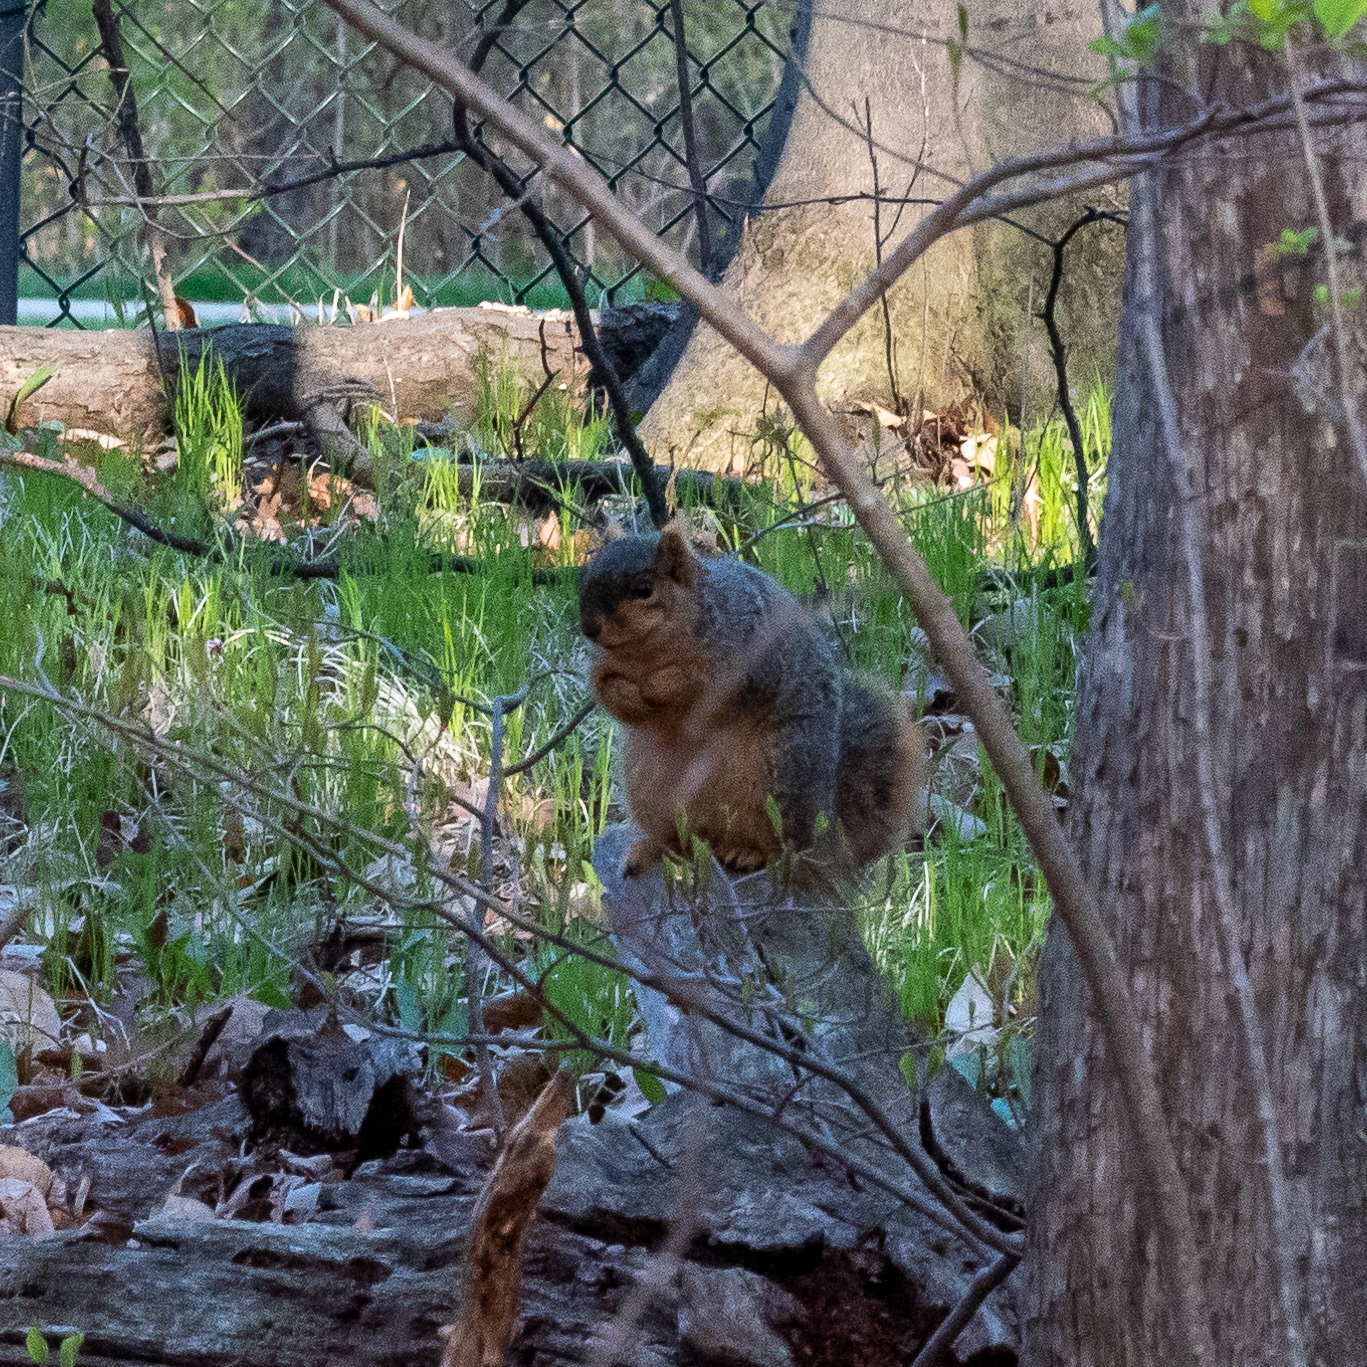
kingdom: Animalia
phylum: Chordata
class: Mammalia
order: Rodentia
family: Sciuridae
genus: Sciurus
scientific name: Sciurus niger
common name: Fox squirrel
